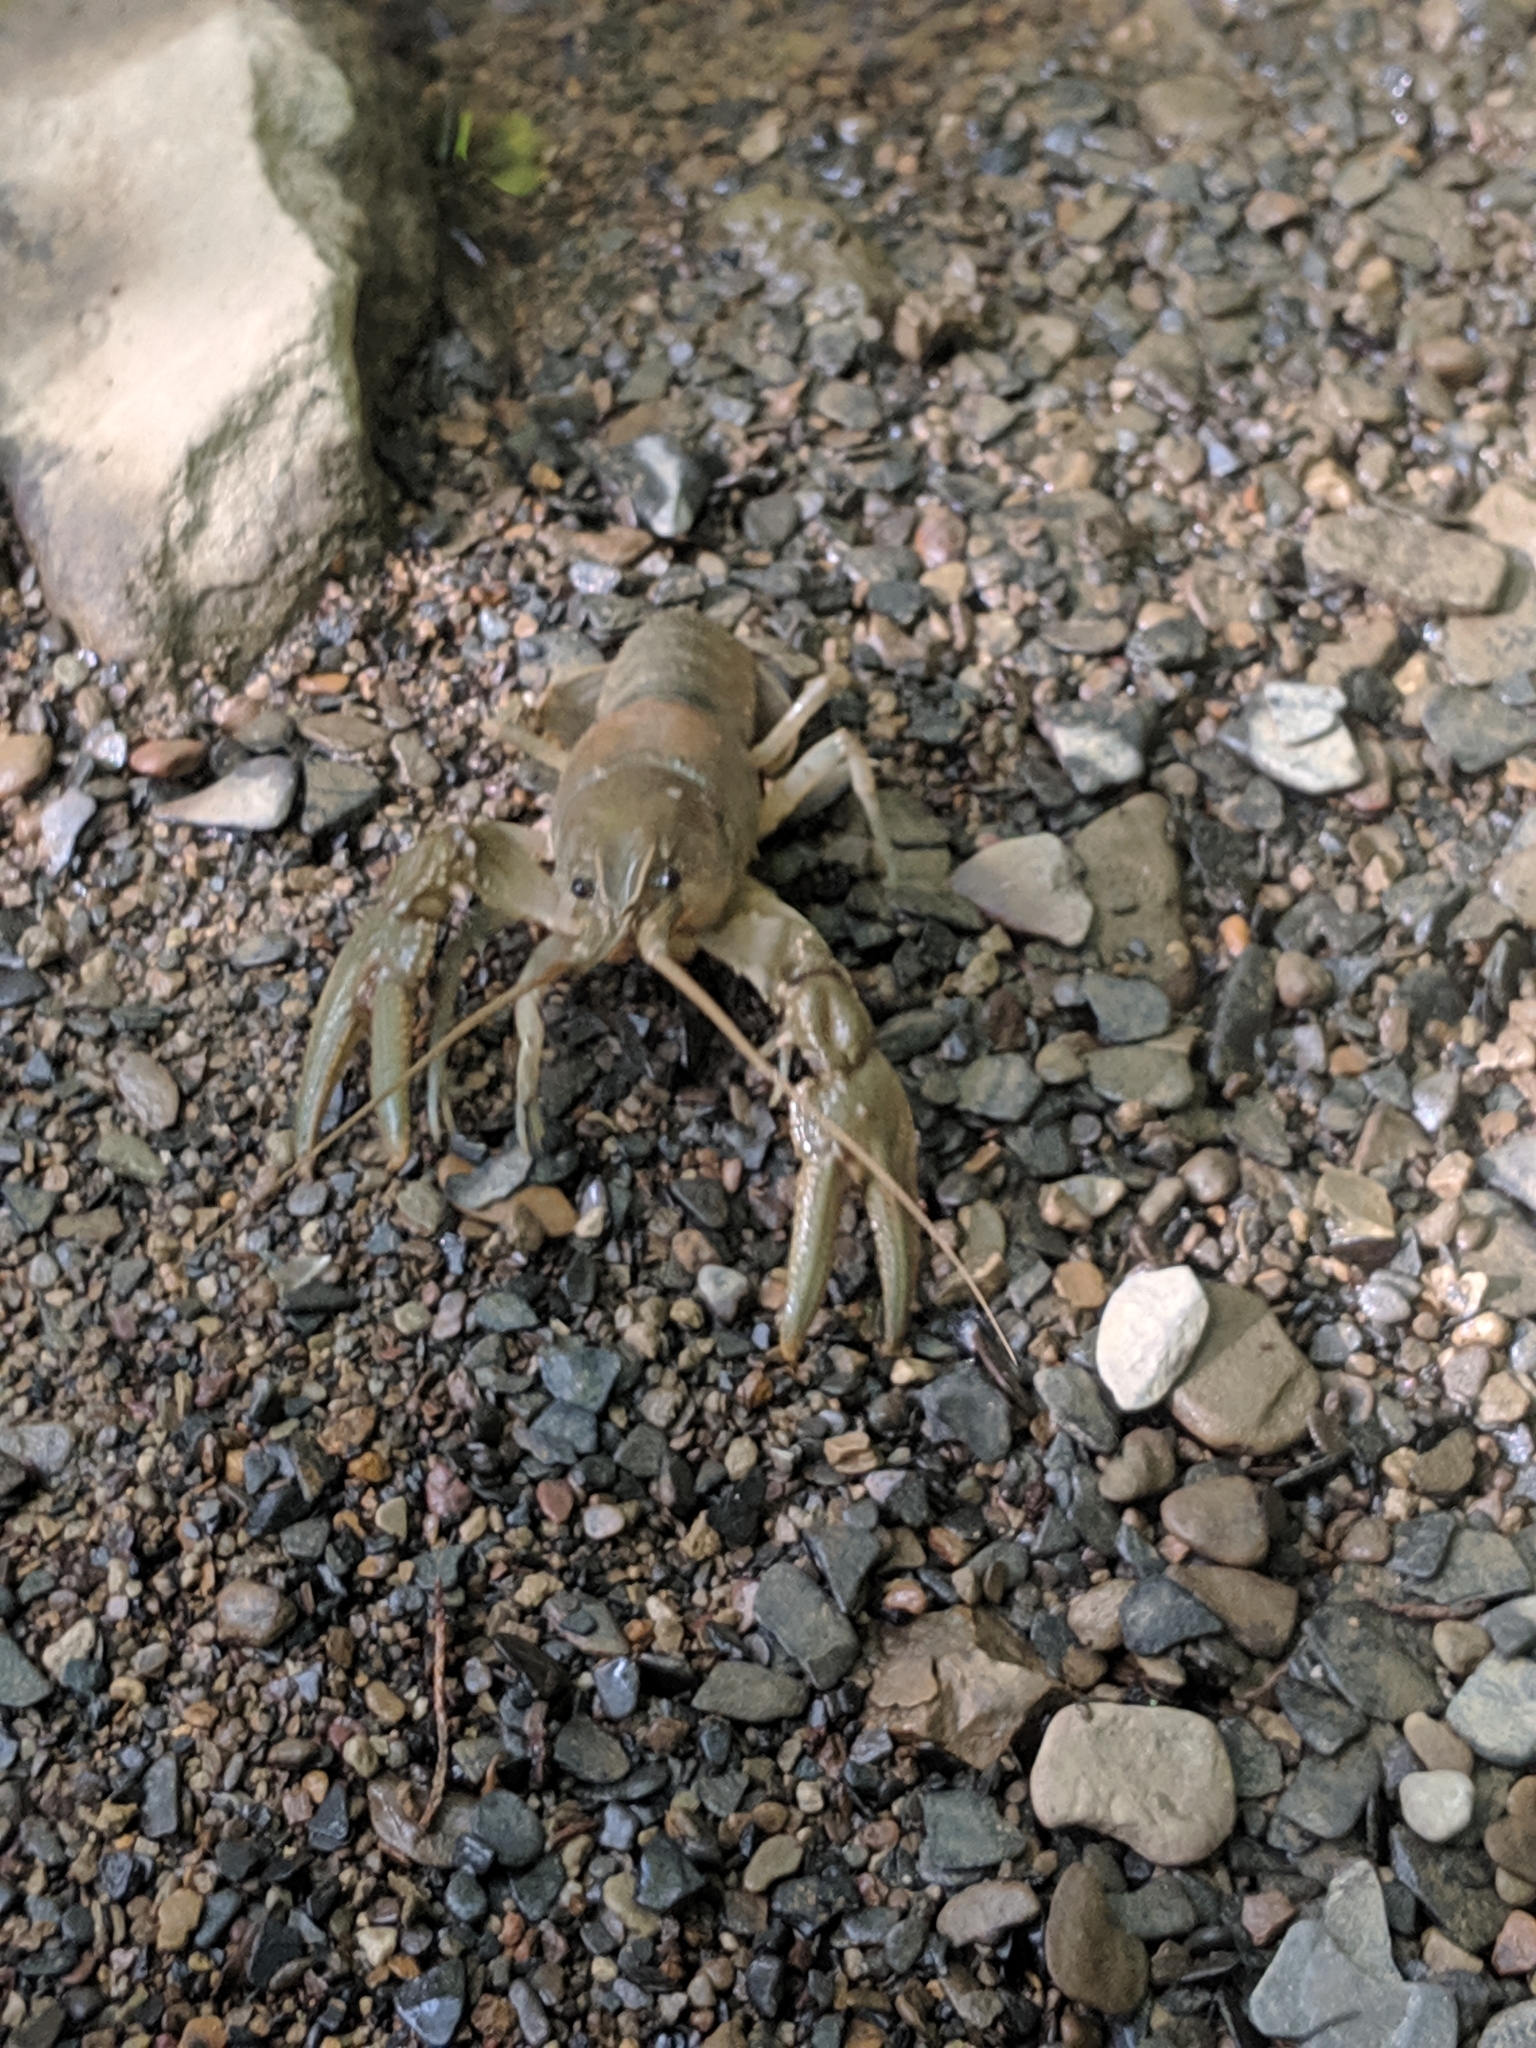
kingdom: Animalia
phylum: Arthropoda
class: Malacostraca
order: Decapoda
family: Cambaridae
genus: Cambarus
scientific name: Cambarus graysoni
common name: Twospot crayfish
